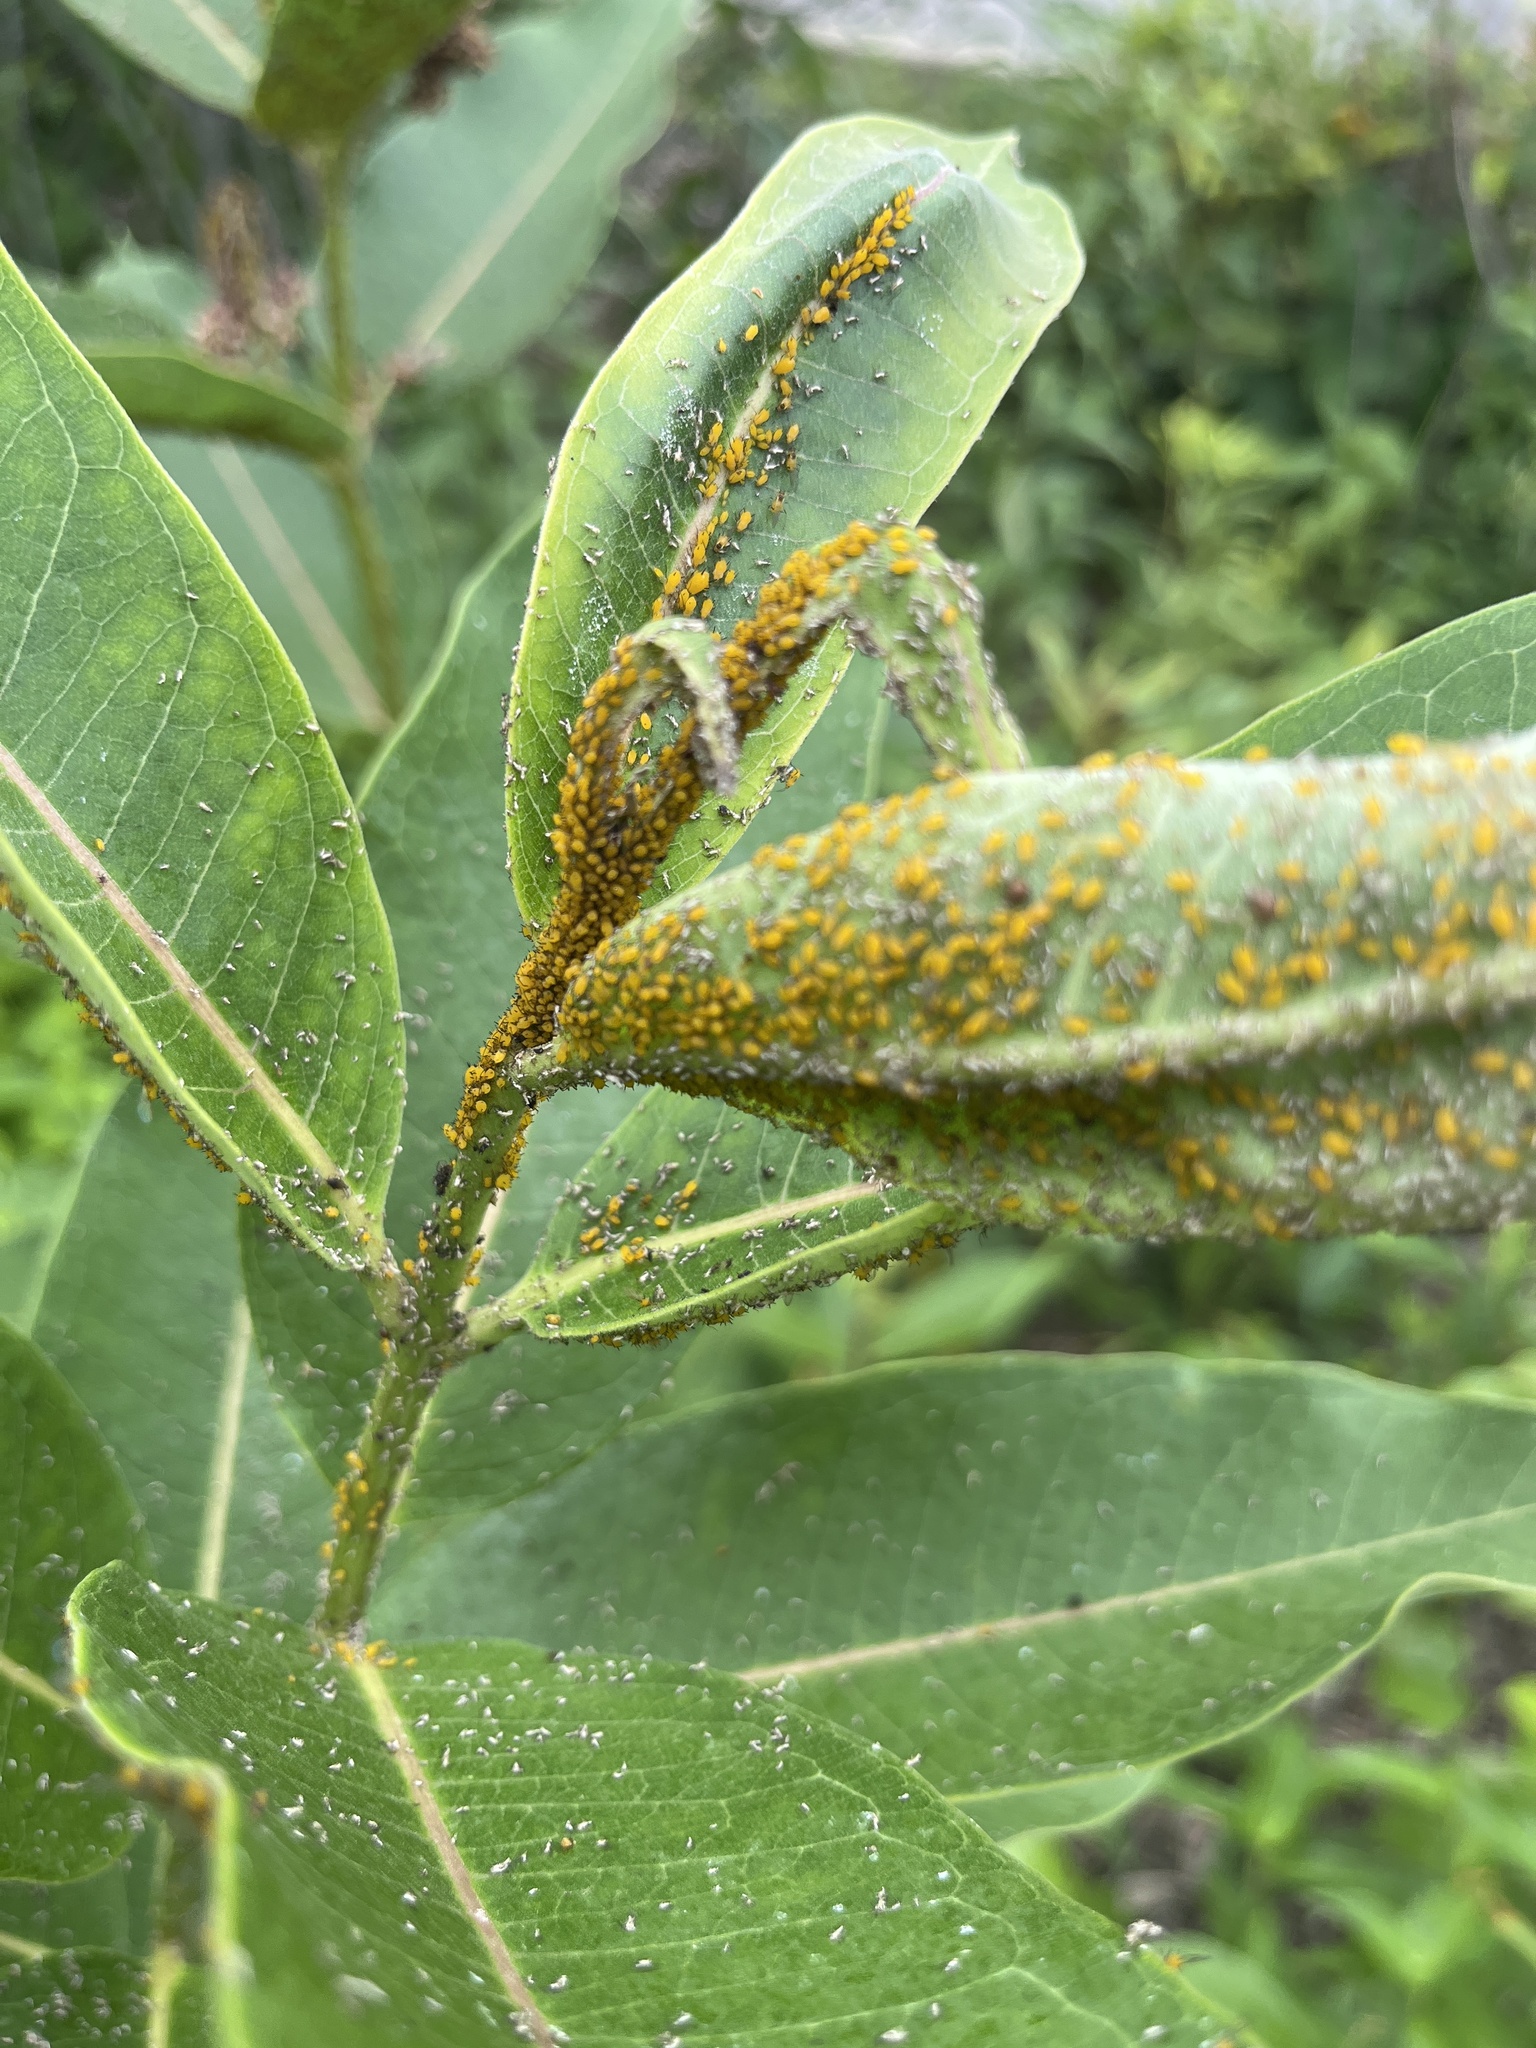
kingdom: Animalia
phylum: Arthropoda
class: Insecta
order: Hemiptera
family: Aphididae
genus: Aphis
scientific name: Aphis nerii
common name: Oleander aphid
